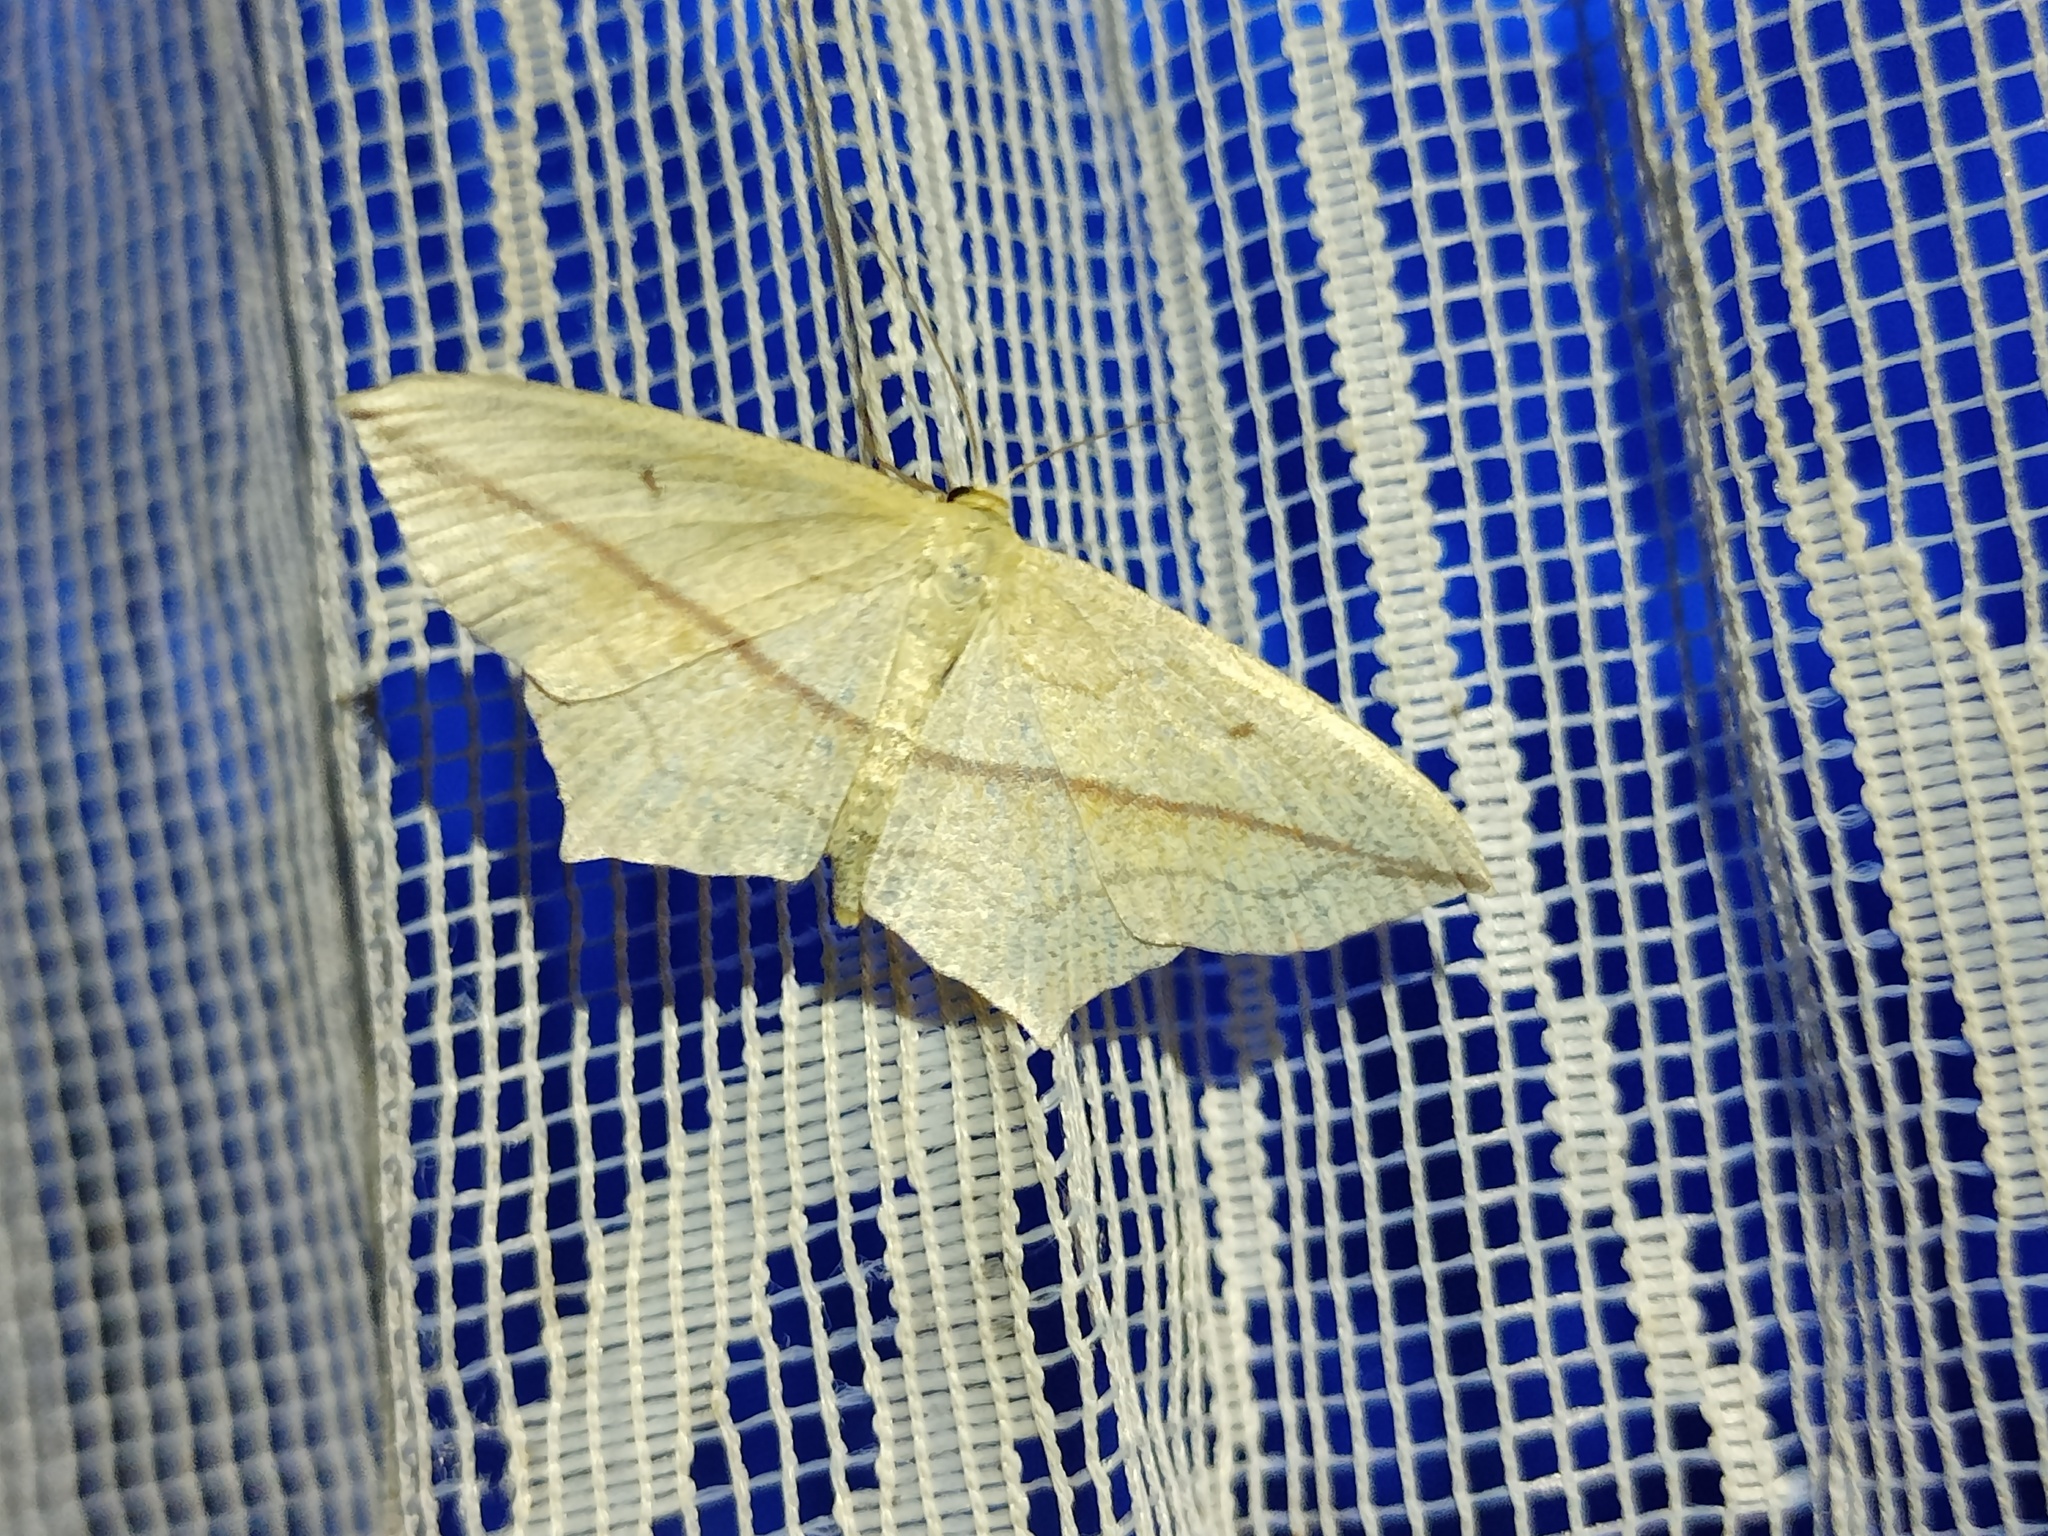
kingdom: Animalia
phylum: Arthropoda
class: Insecta
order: Lepidoptera
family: Geometridae
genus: Timandra
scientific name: Timandra comae
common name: Blood-vein
